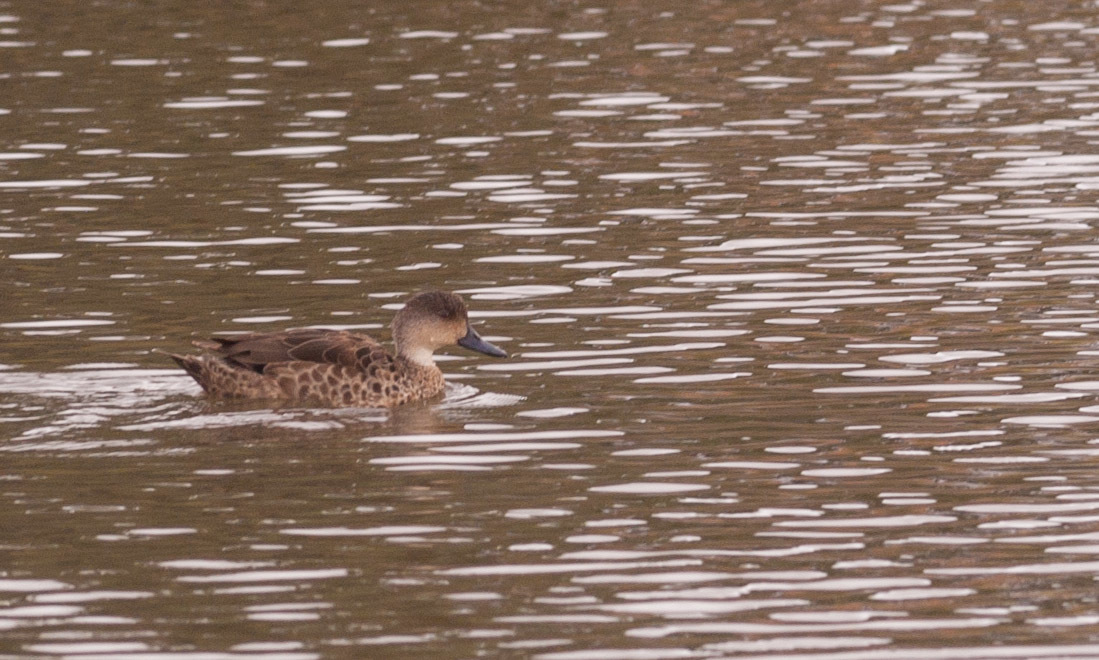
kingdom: Animalia
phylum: Chordata
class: Aves
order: Anseriformes
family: Anatidae
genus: Anas
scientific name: Anas gracilis
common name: Grey teal
